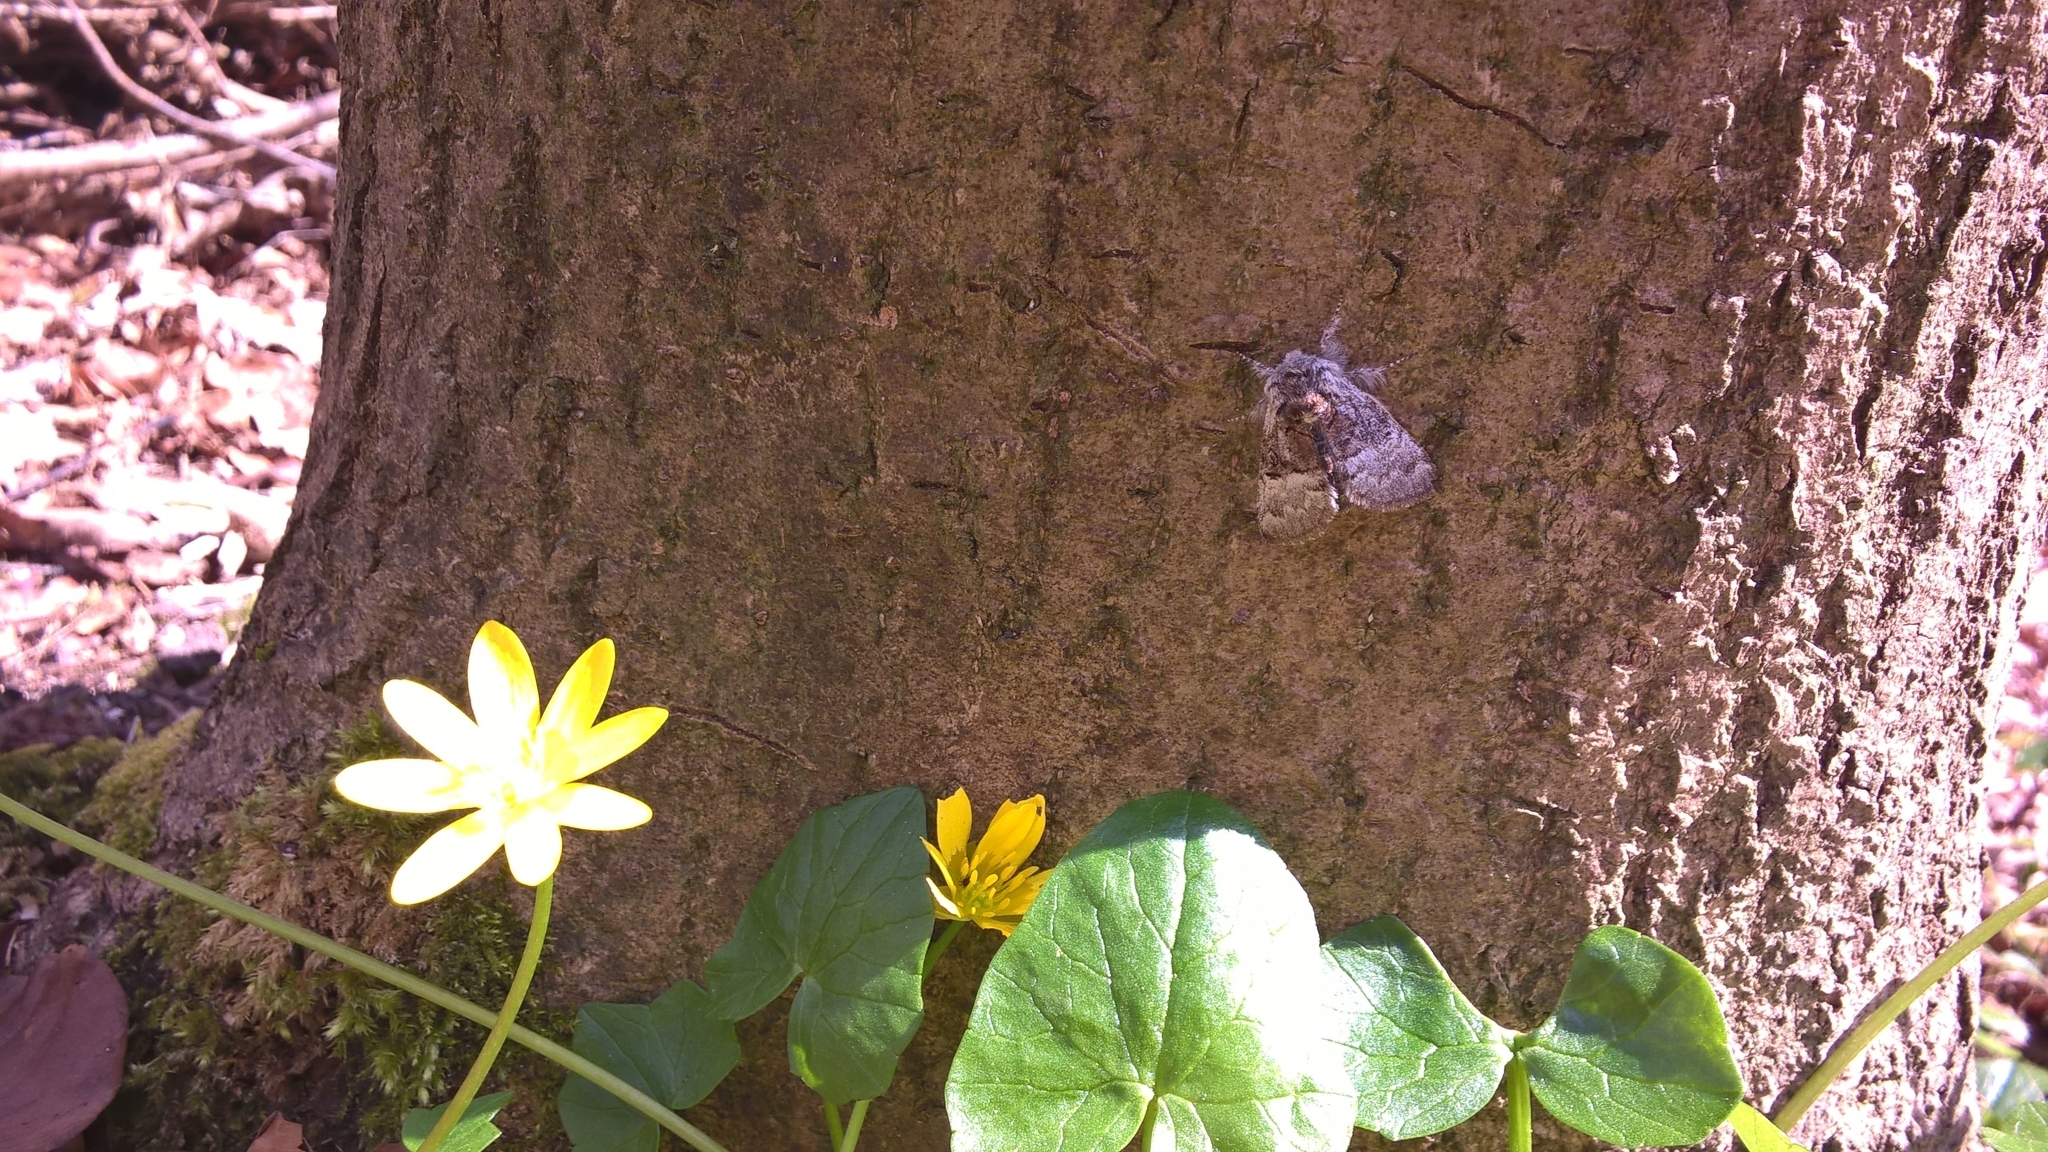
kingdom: Animalia
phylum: Arthropoda
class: Insecta
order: Lepidoptera
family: Noctuidae
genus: Colocasia
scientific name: Colocasia coryli
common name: Nut-tree tussock
